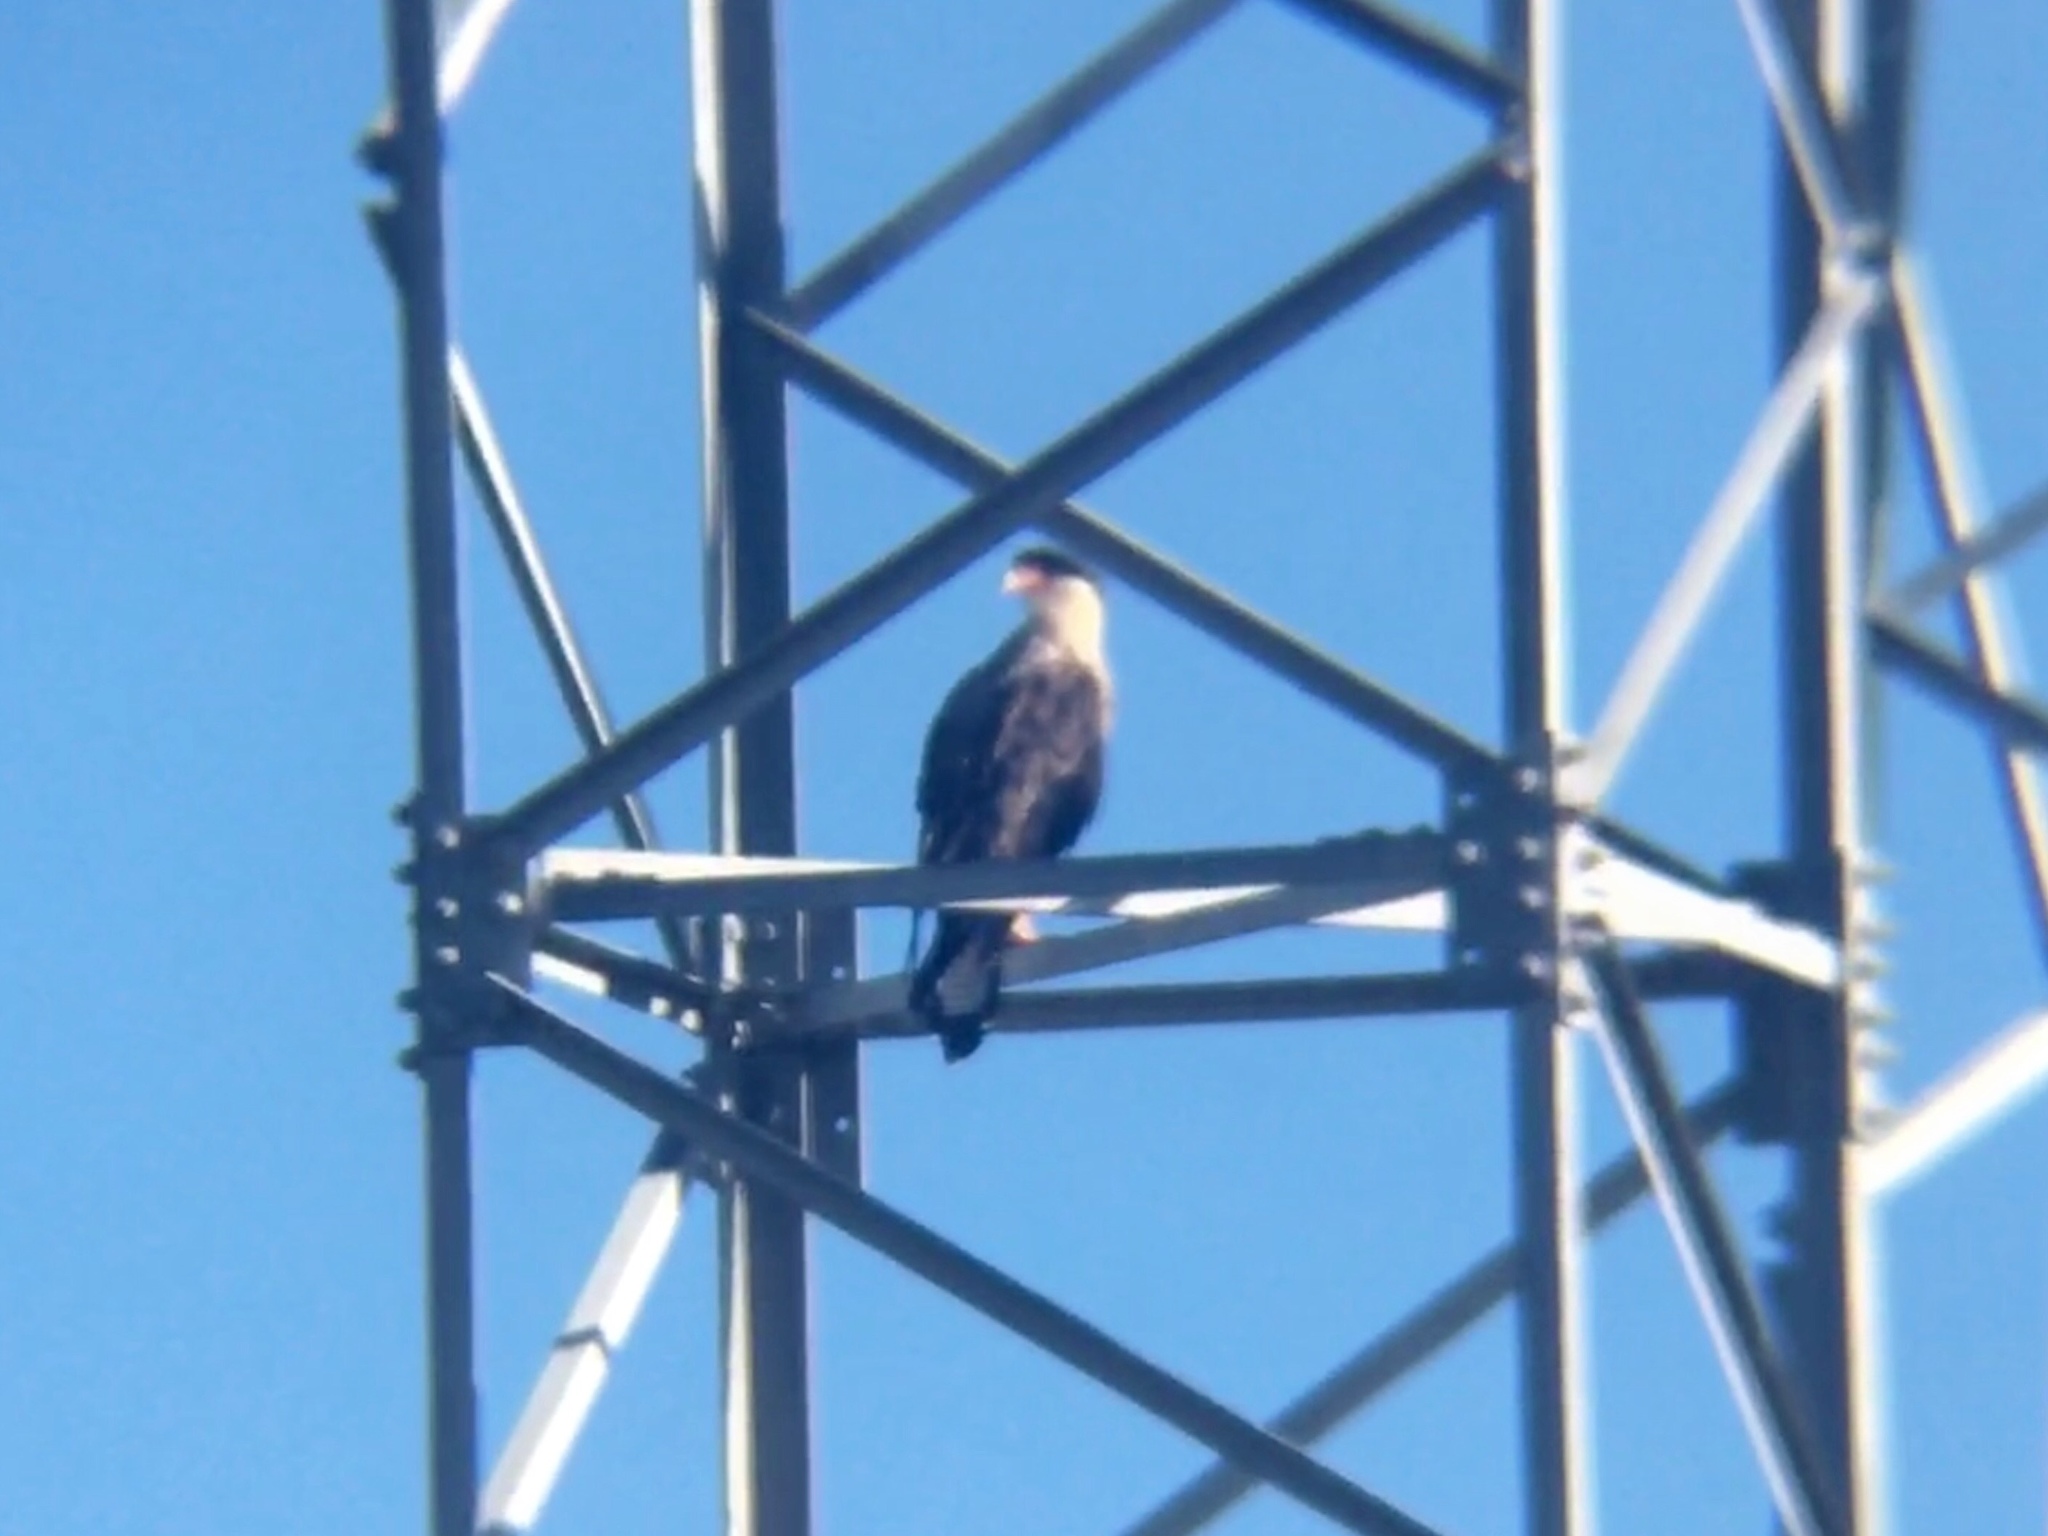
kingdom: Animalia
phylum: Chordata
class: Aves
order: Falconiformes
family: Falconidae
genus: Caracara
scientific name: Caracara plancus
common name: Southern caracara
